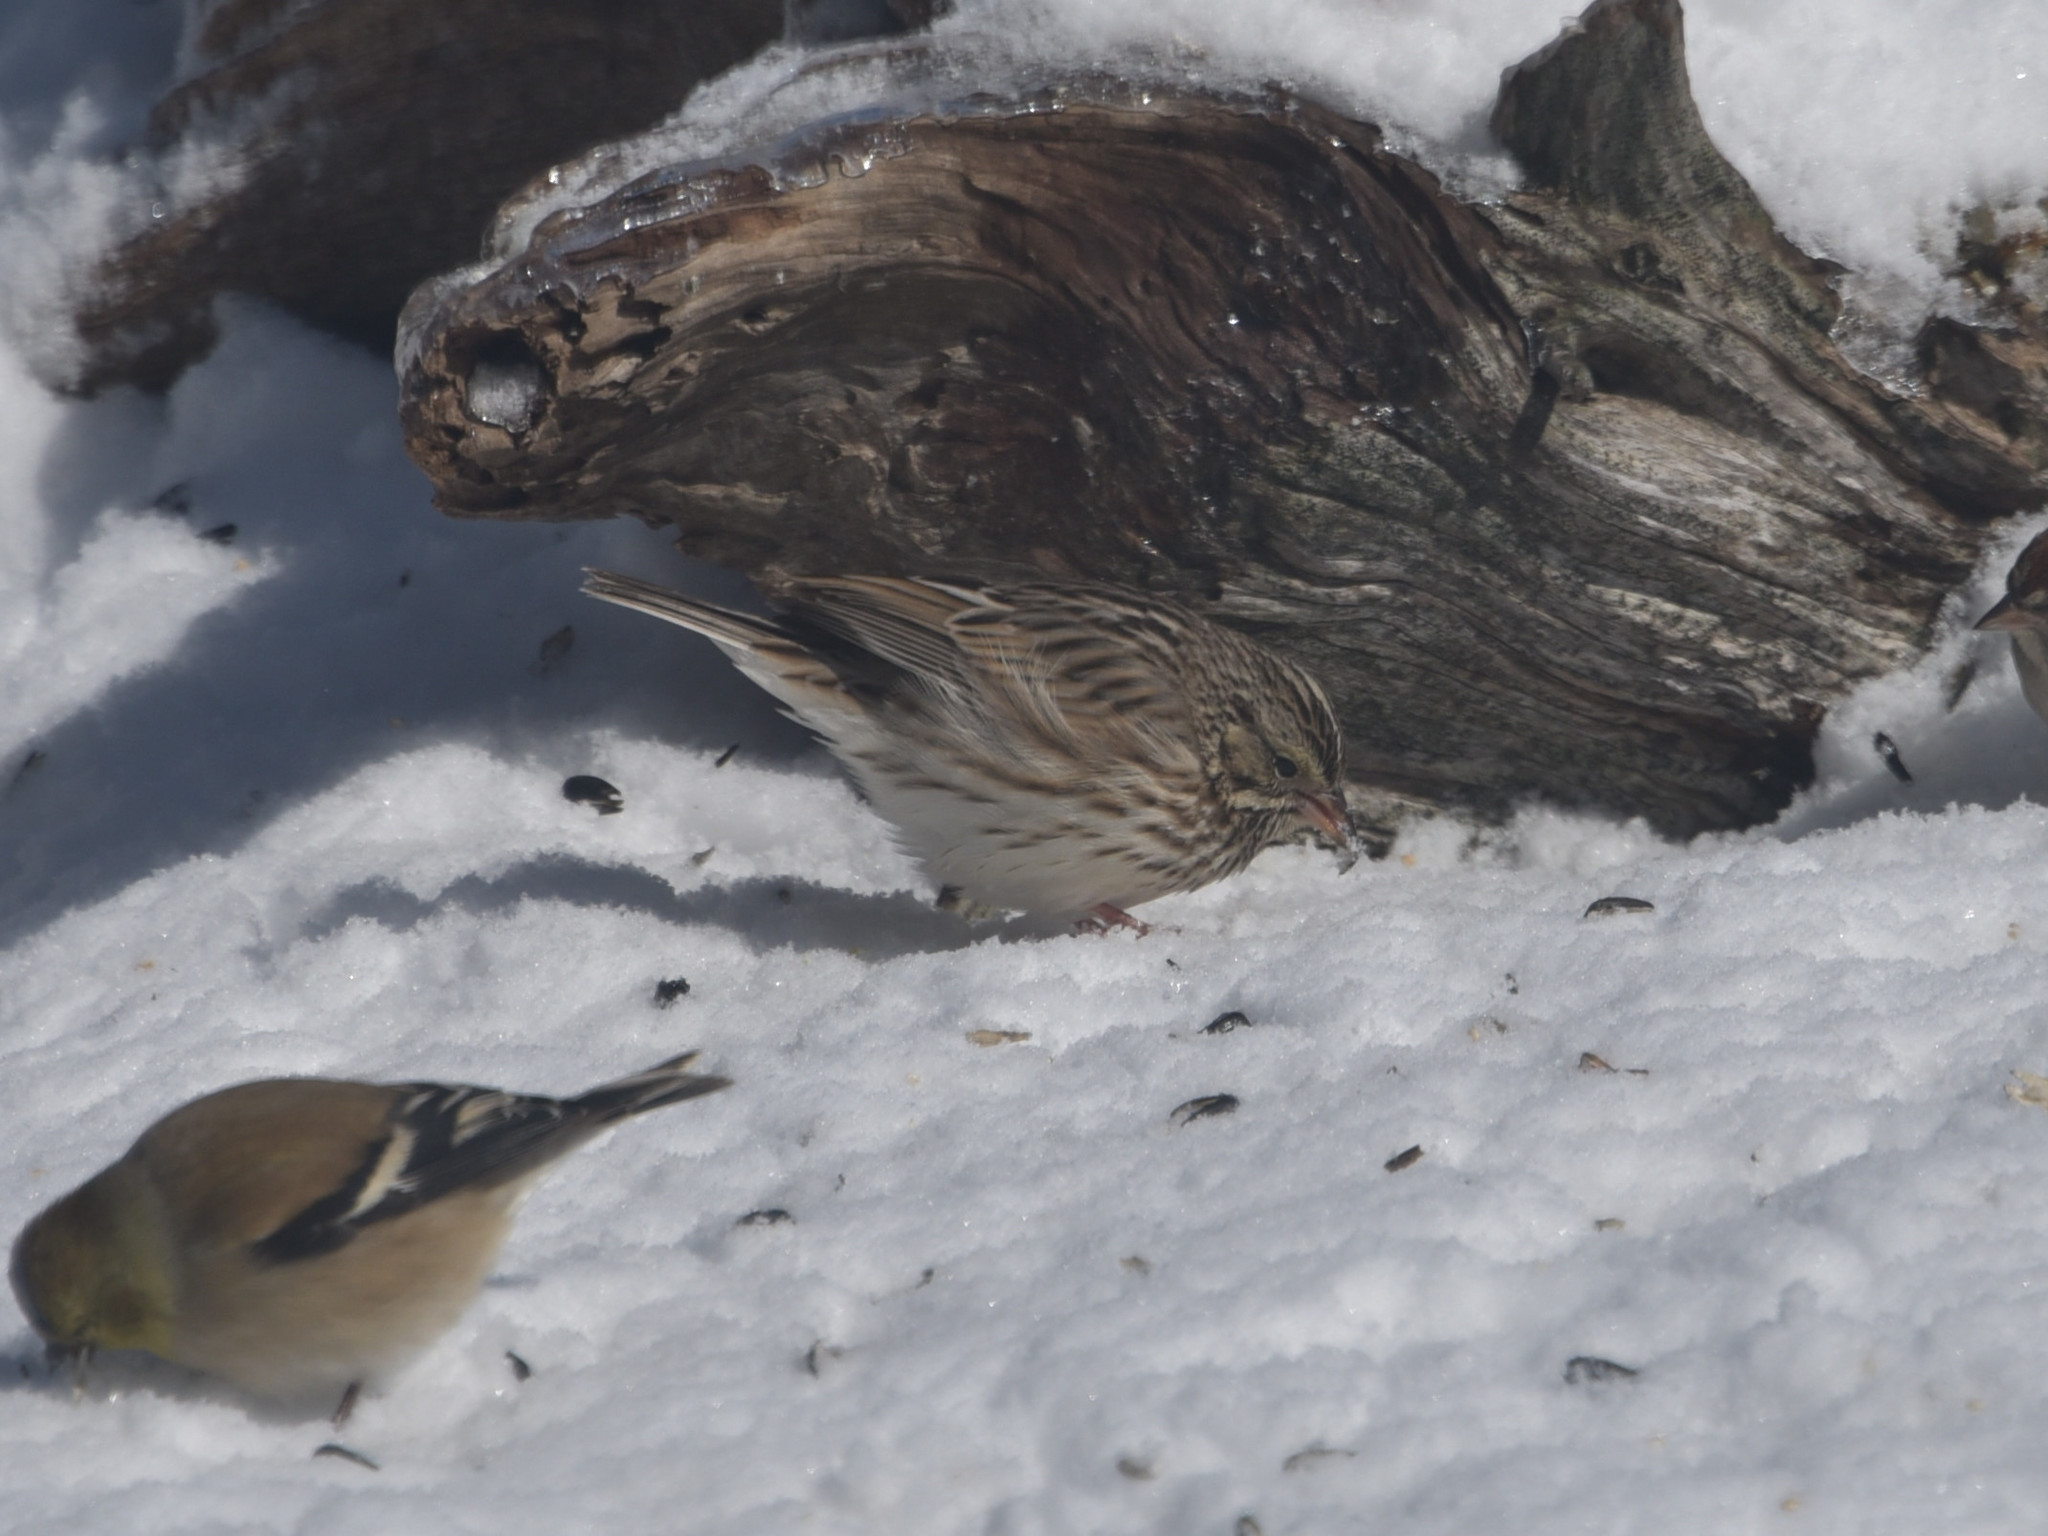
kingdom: Animalia
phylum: Chordata
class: Aves
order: Passeriformes
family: Passerellidae
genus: Passerculus
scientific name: Passerculus sandwichensis
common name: Savannah sparrow
